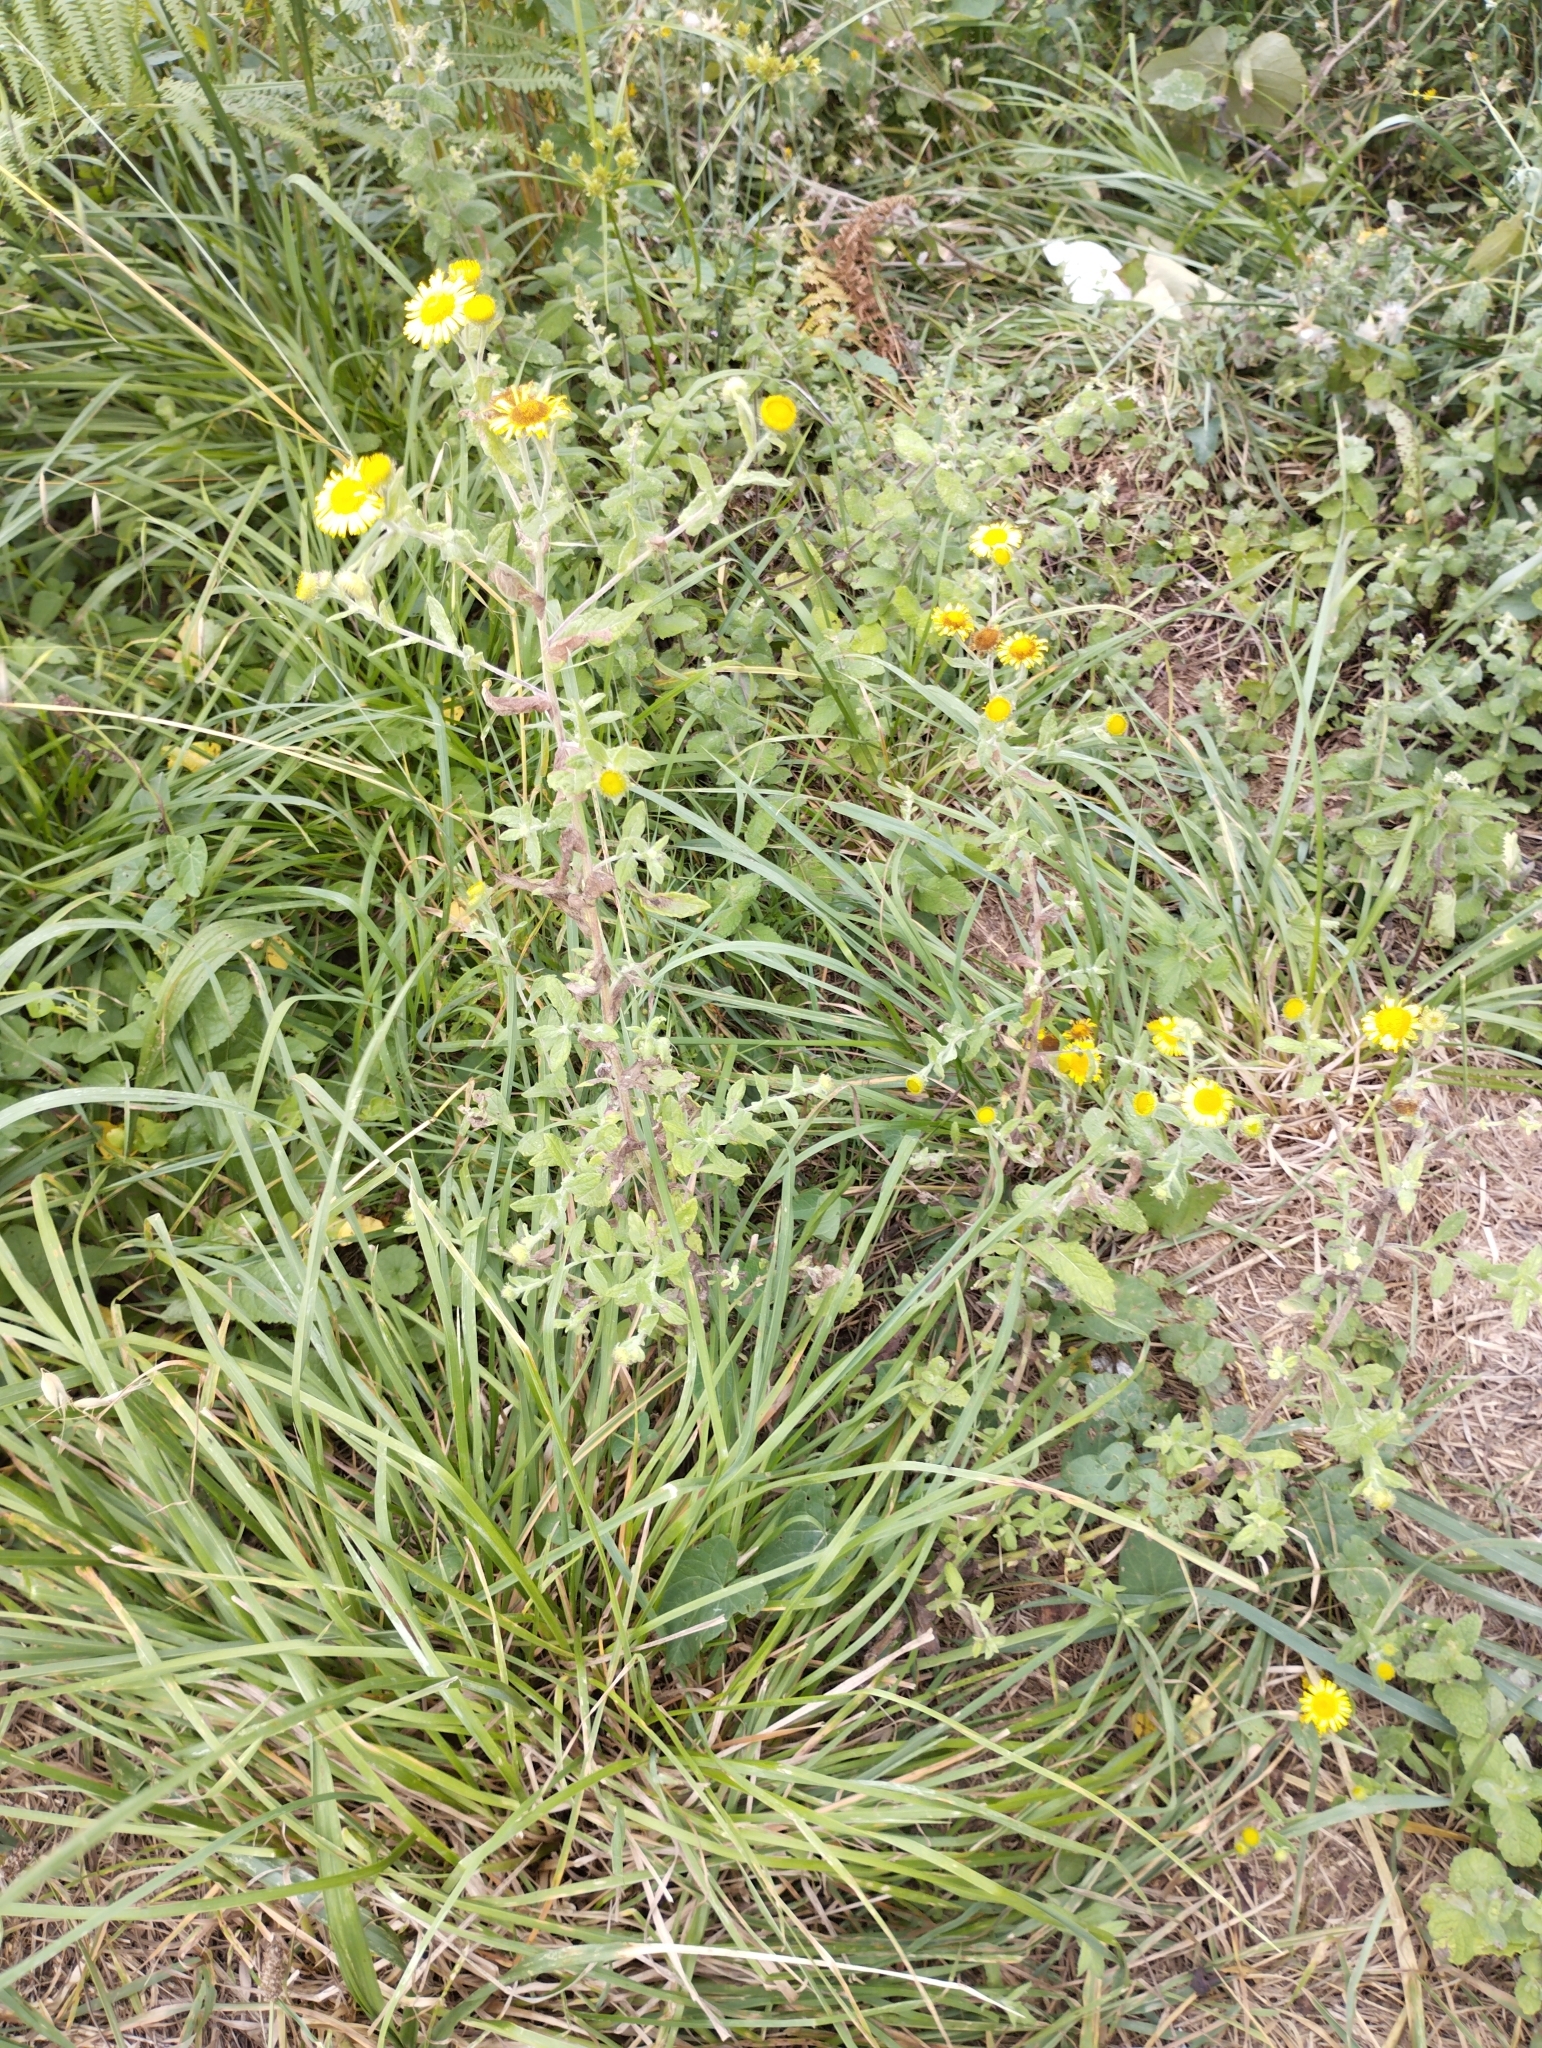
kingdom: Plantae
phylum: Tracheophyta
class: Magnoliopsida
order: Asterales
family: Asteraceae
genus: Pulicaria
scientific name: Pulicaria dysenterica
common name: Common fleabane
